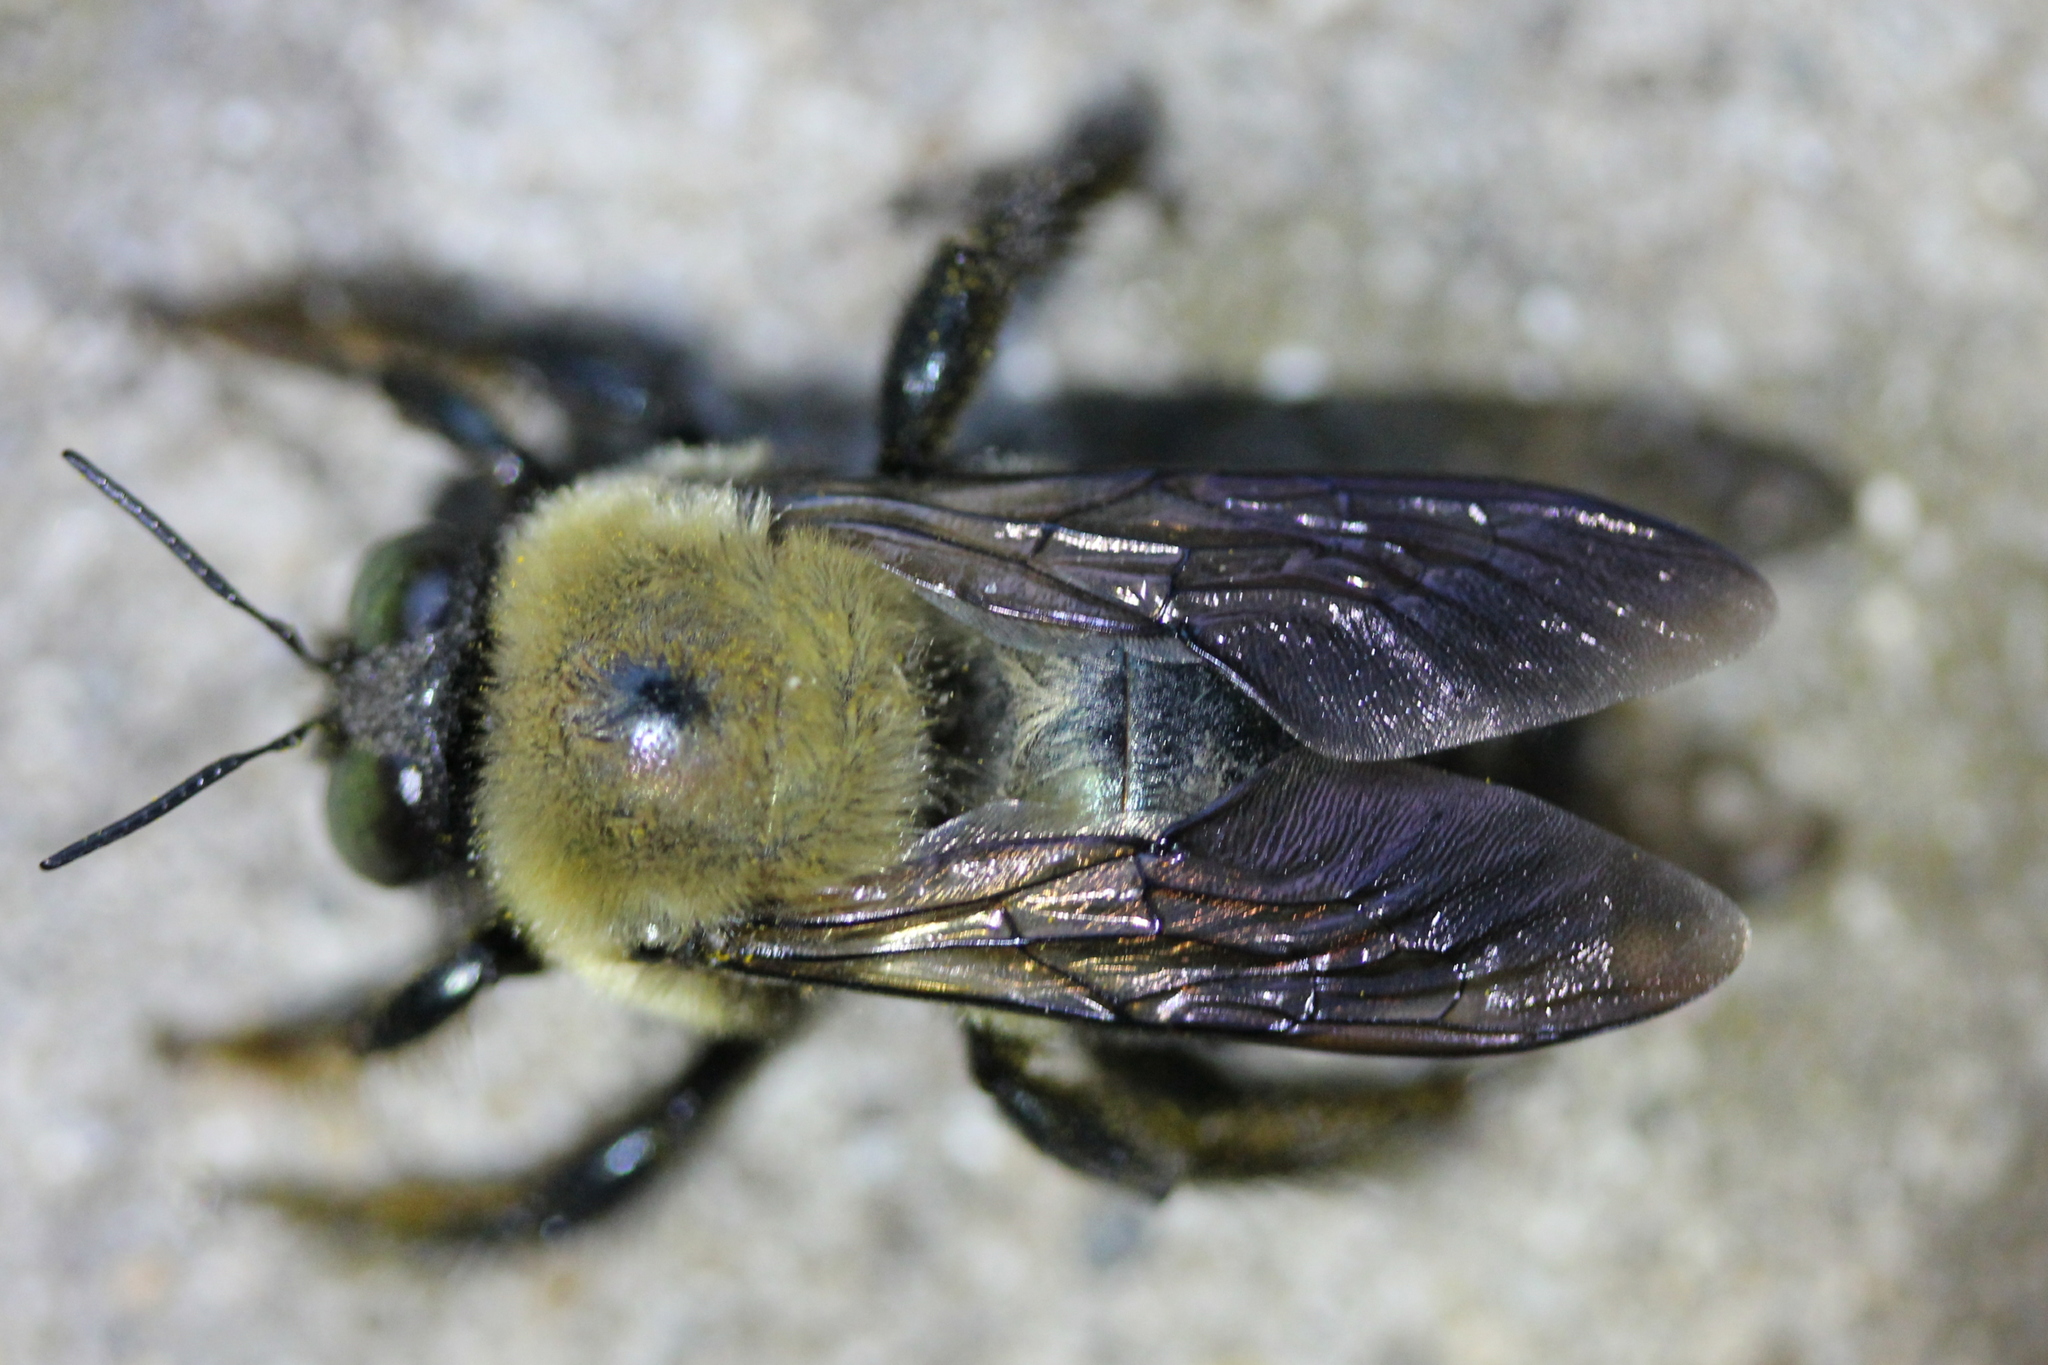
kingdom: Animalia
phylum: Arthropoda
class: Insecta
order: Hymenoptera
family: Apidae
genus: Xylocopa
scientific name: Xylocopa virginica
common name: Carpenter bee
